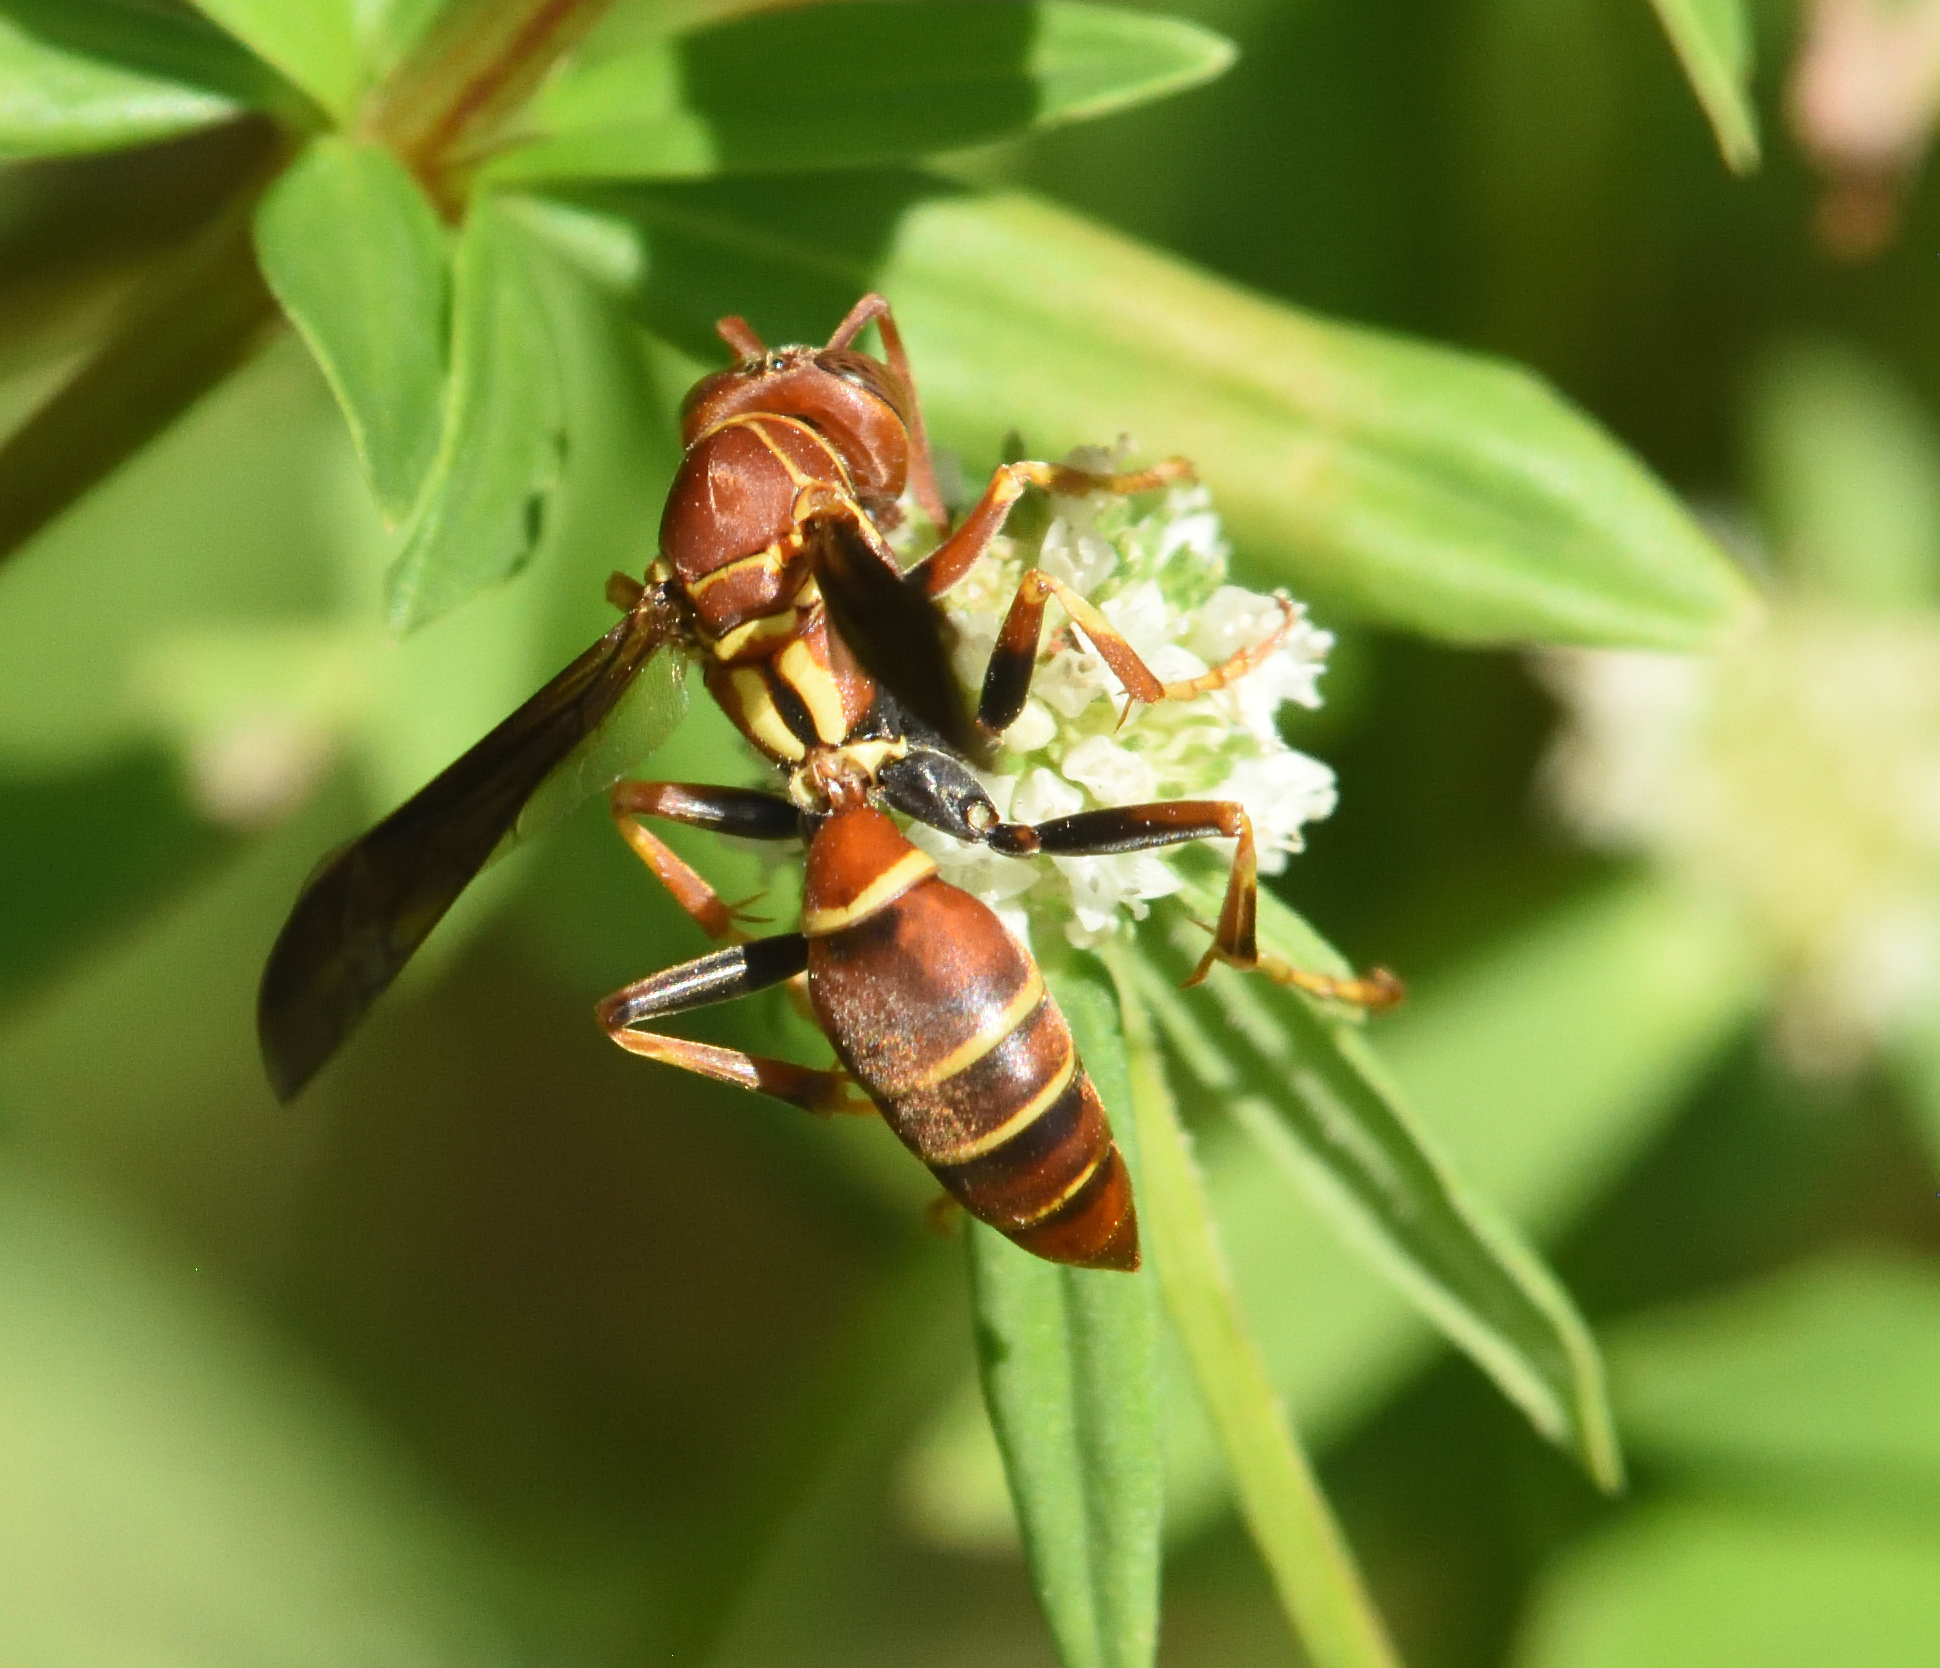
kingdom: Animalia
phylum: Arthropoda
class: Insecta
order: Hymenoptera
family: Eumenidae
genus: Polistes
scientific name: Polistes dorsalis
